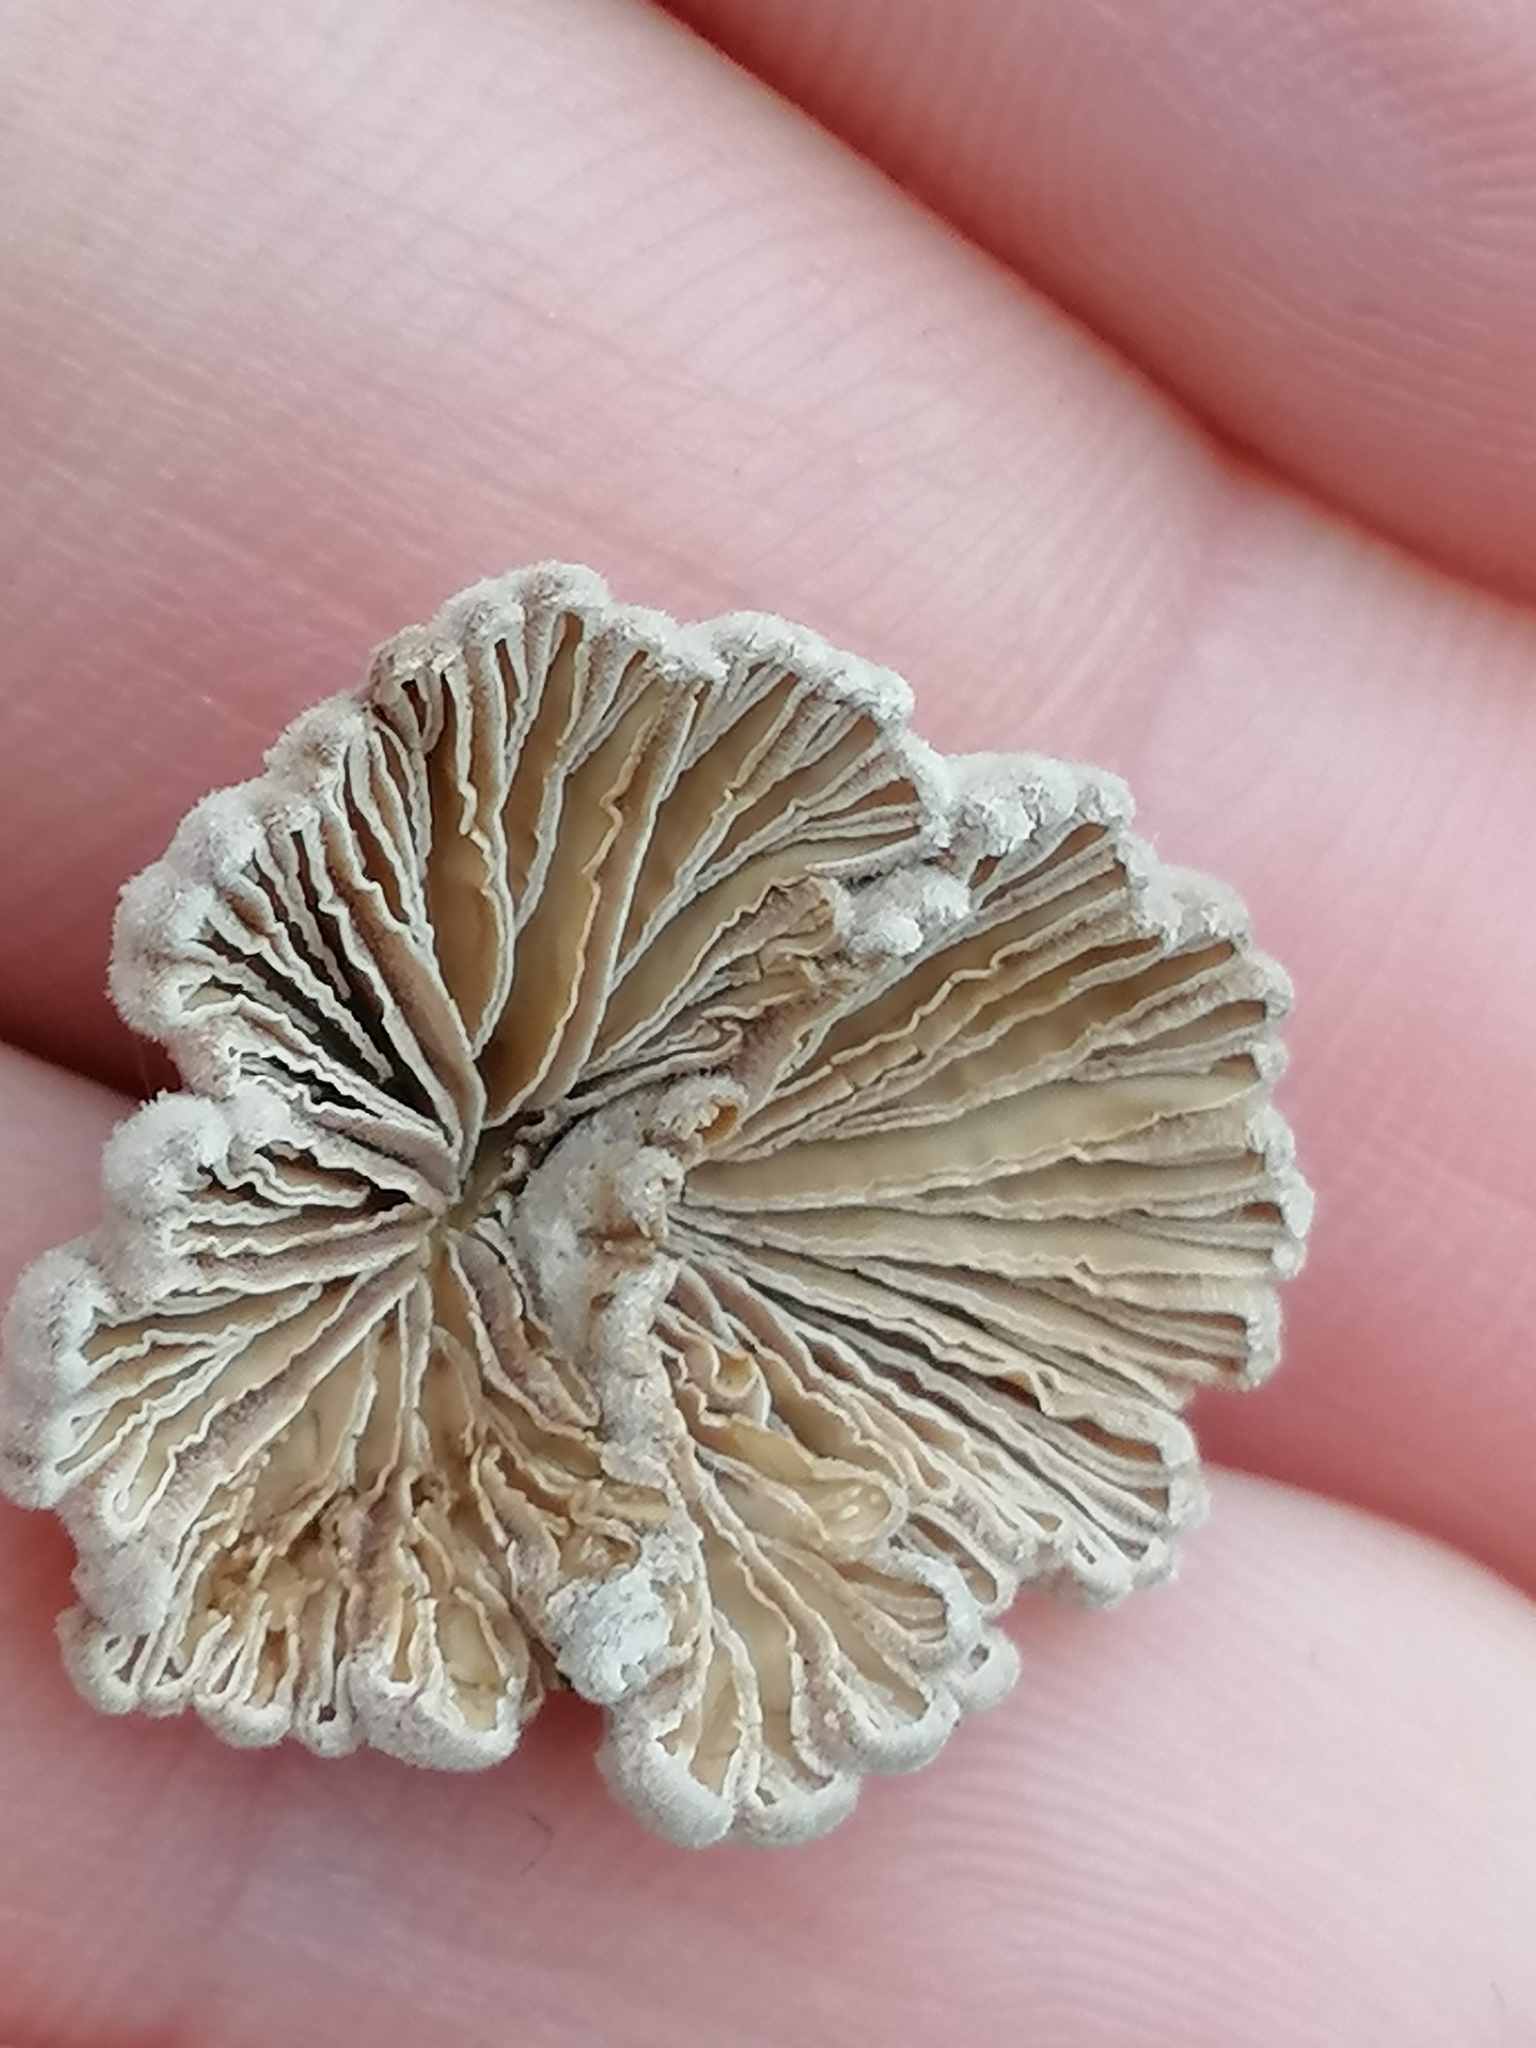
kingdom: Fungi
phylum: Basidiomycota
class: Agaricomycetes
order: Agaricales
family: Schizophyllaceae
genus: Schizophyllum
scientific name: Schizophyllum commune
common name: Common porecrust
